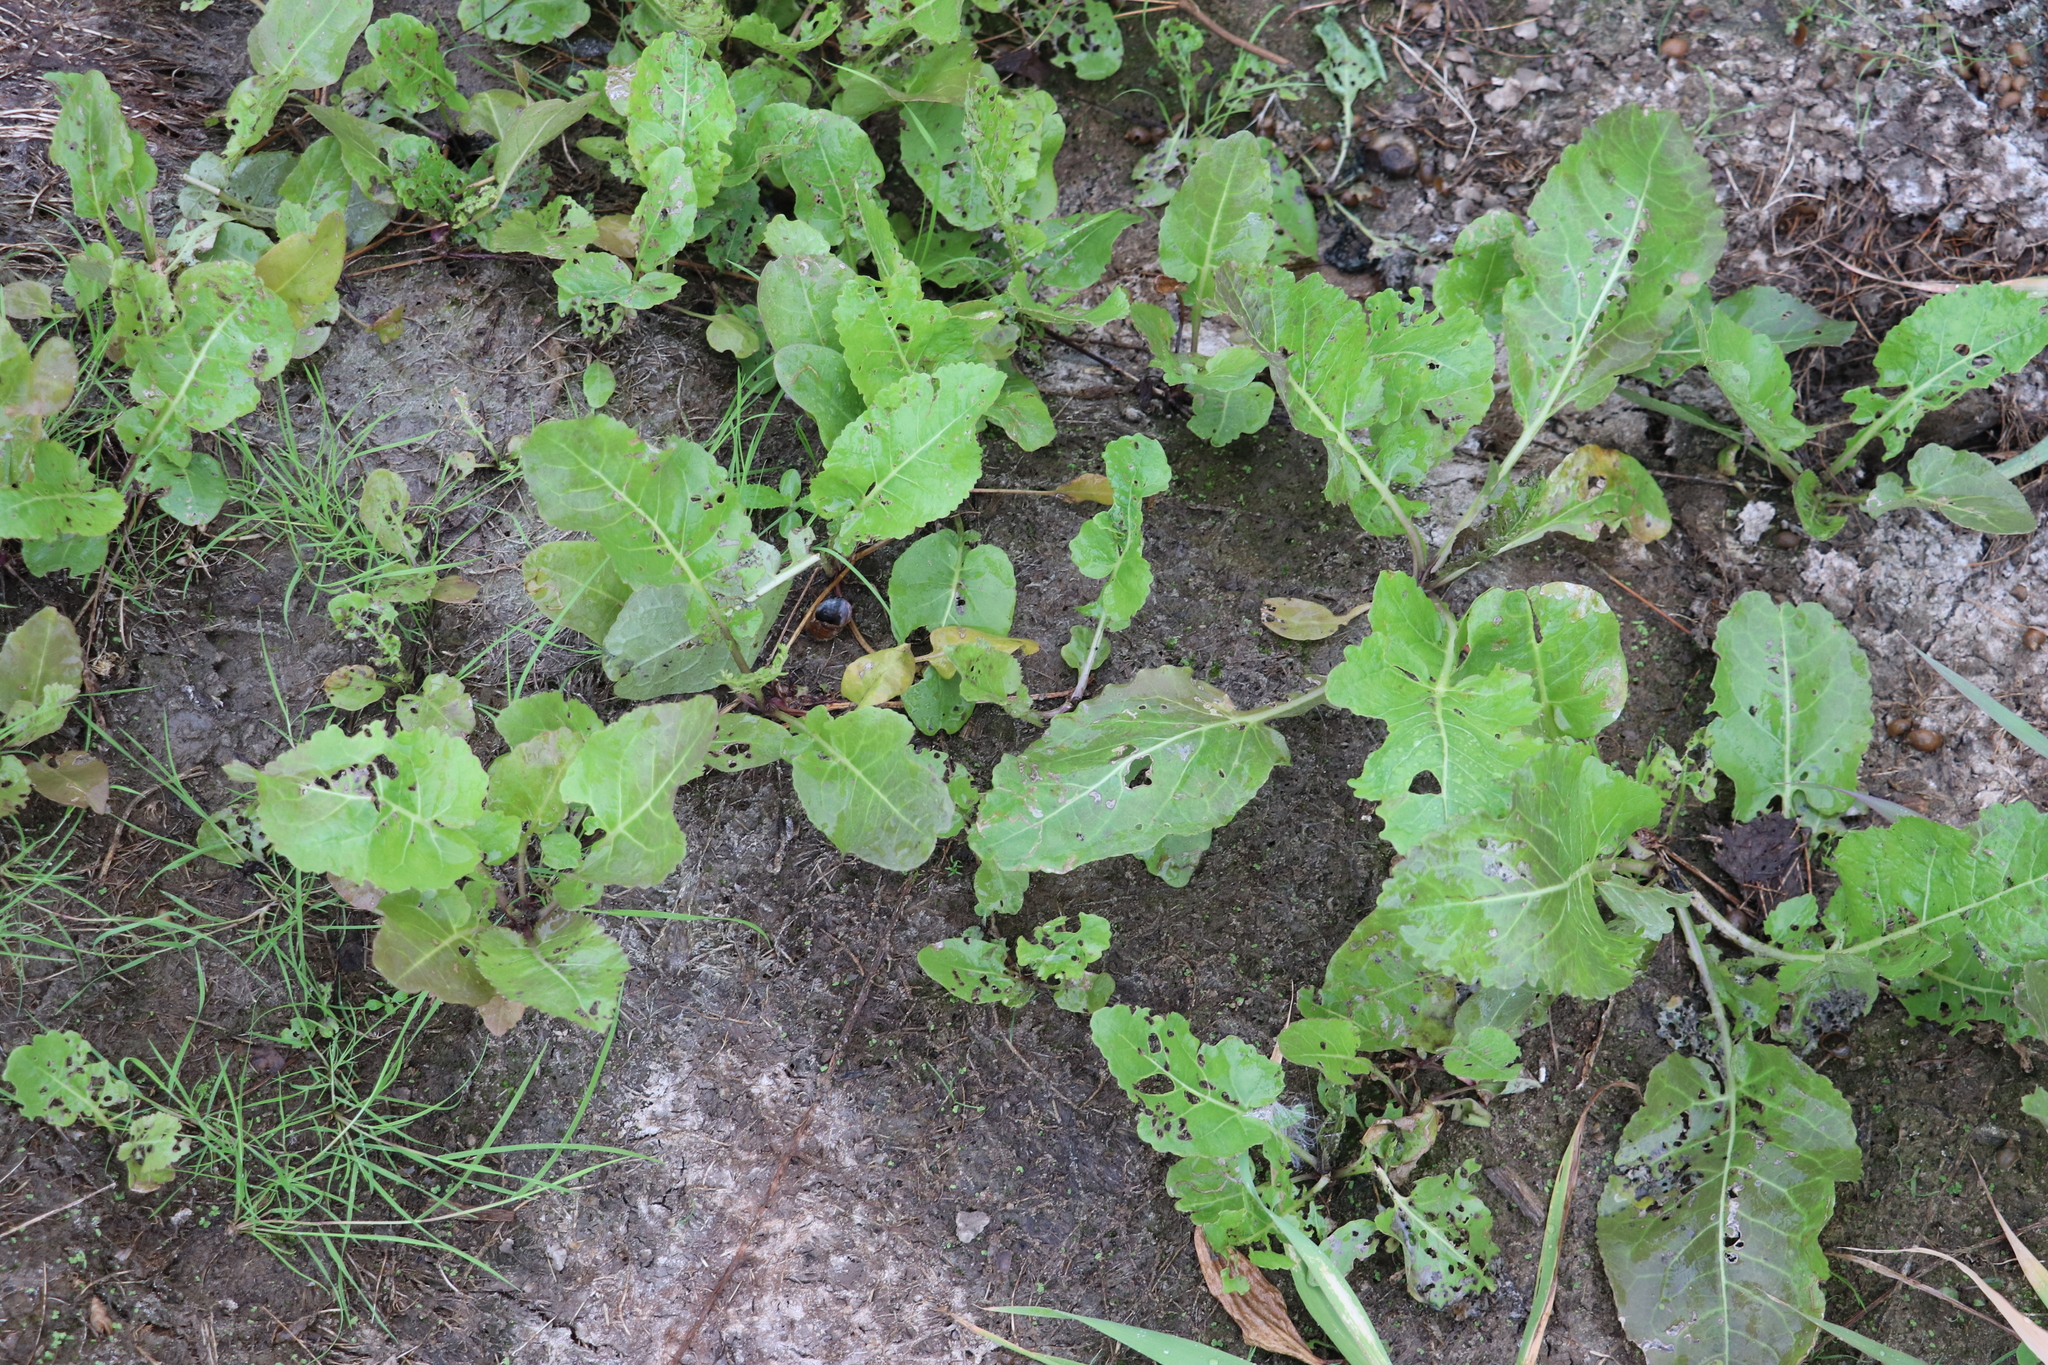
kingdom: Plantae
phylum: Tracheophyta
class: Magnoliopsida
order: Brassicales
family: Brassicaceae
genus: Rorippa
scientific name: Rorippa amphibia
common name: Great yellow-cress
